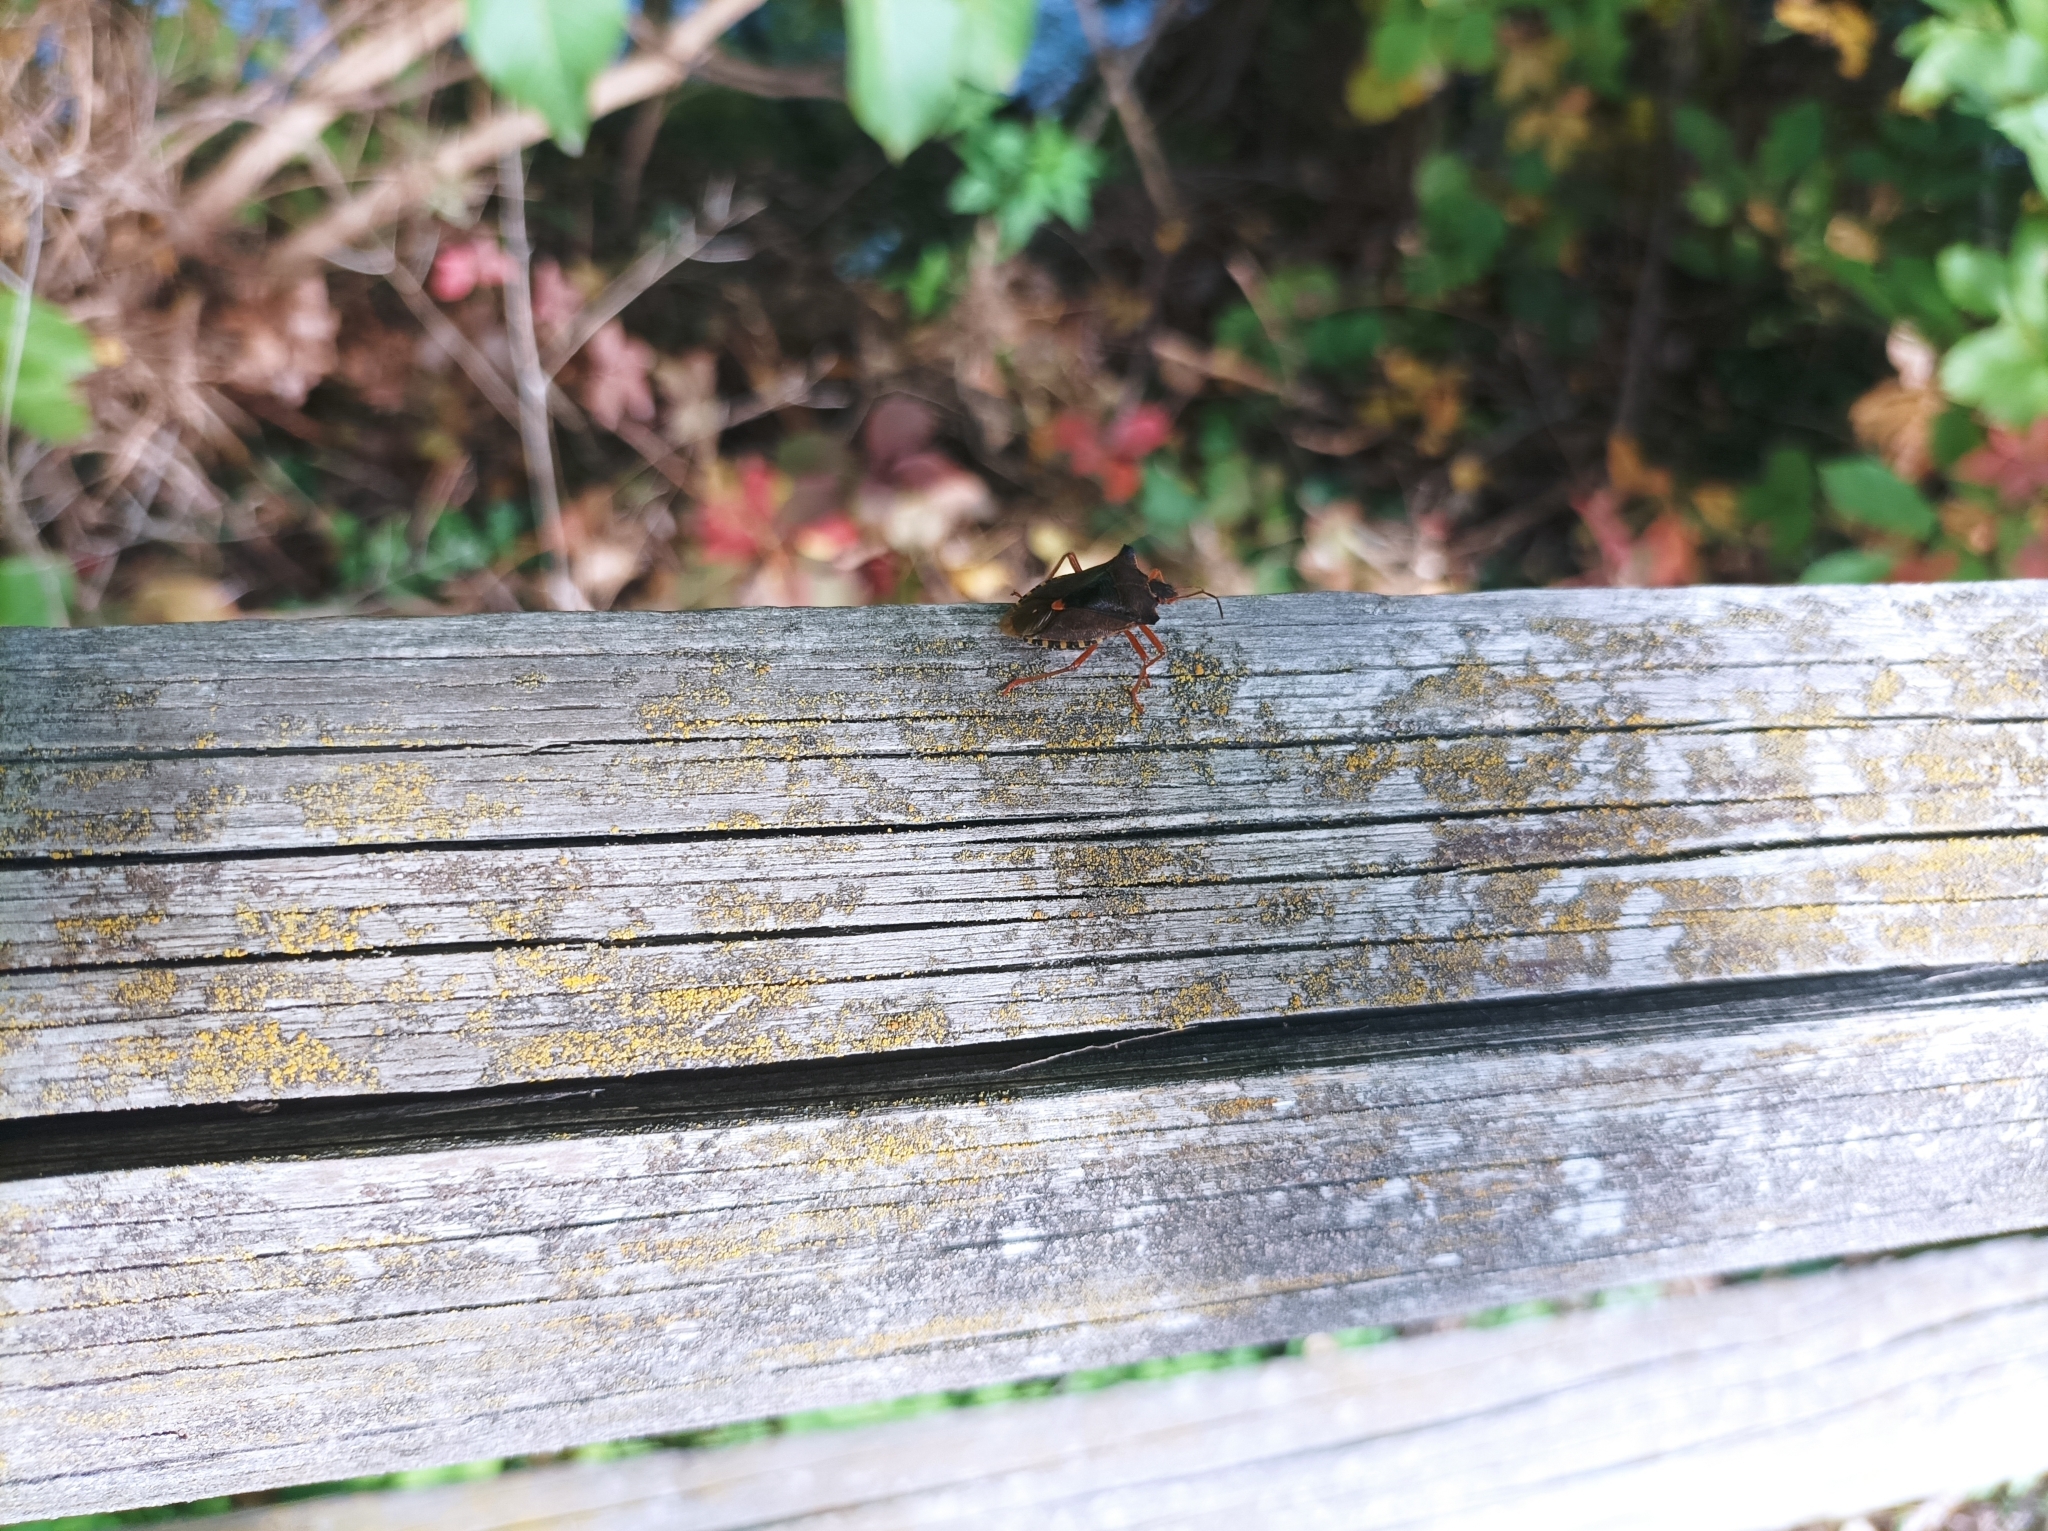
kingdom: Animalia
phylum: Arthropoda
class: Insecta
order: Hemiptera
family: Pentatomidae
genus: Pentatoma
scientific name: Pentatoma rufipes
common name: Forest bug
